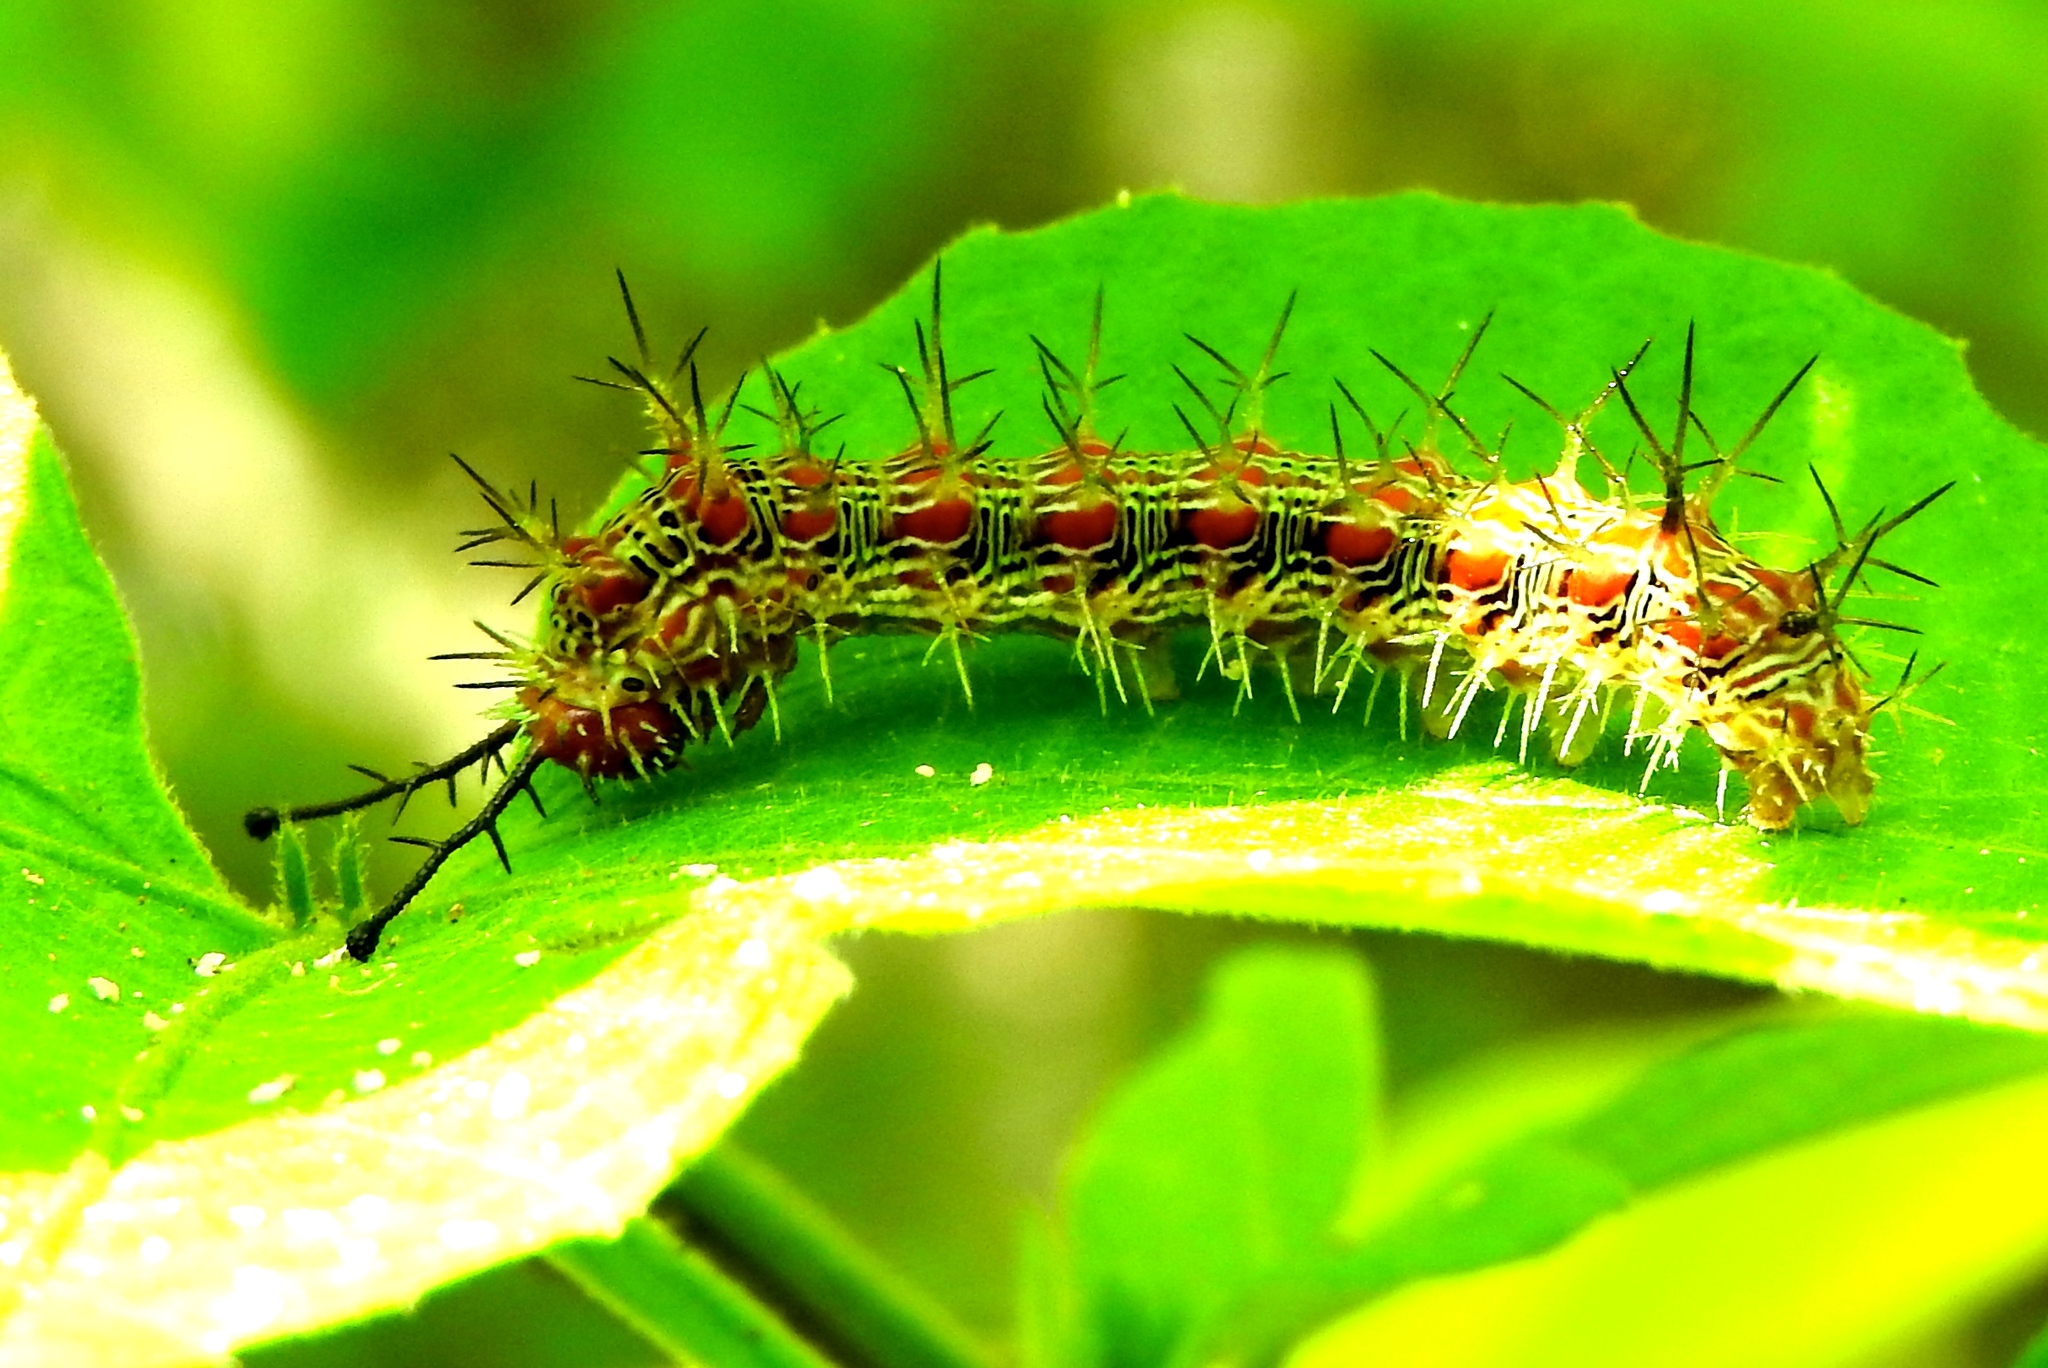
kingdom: Animalia
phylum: Arthropoda
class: Insecta
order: Lepidoptera
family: Nymphalidae
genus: Hamadryas
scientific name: Hamadryas
